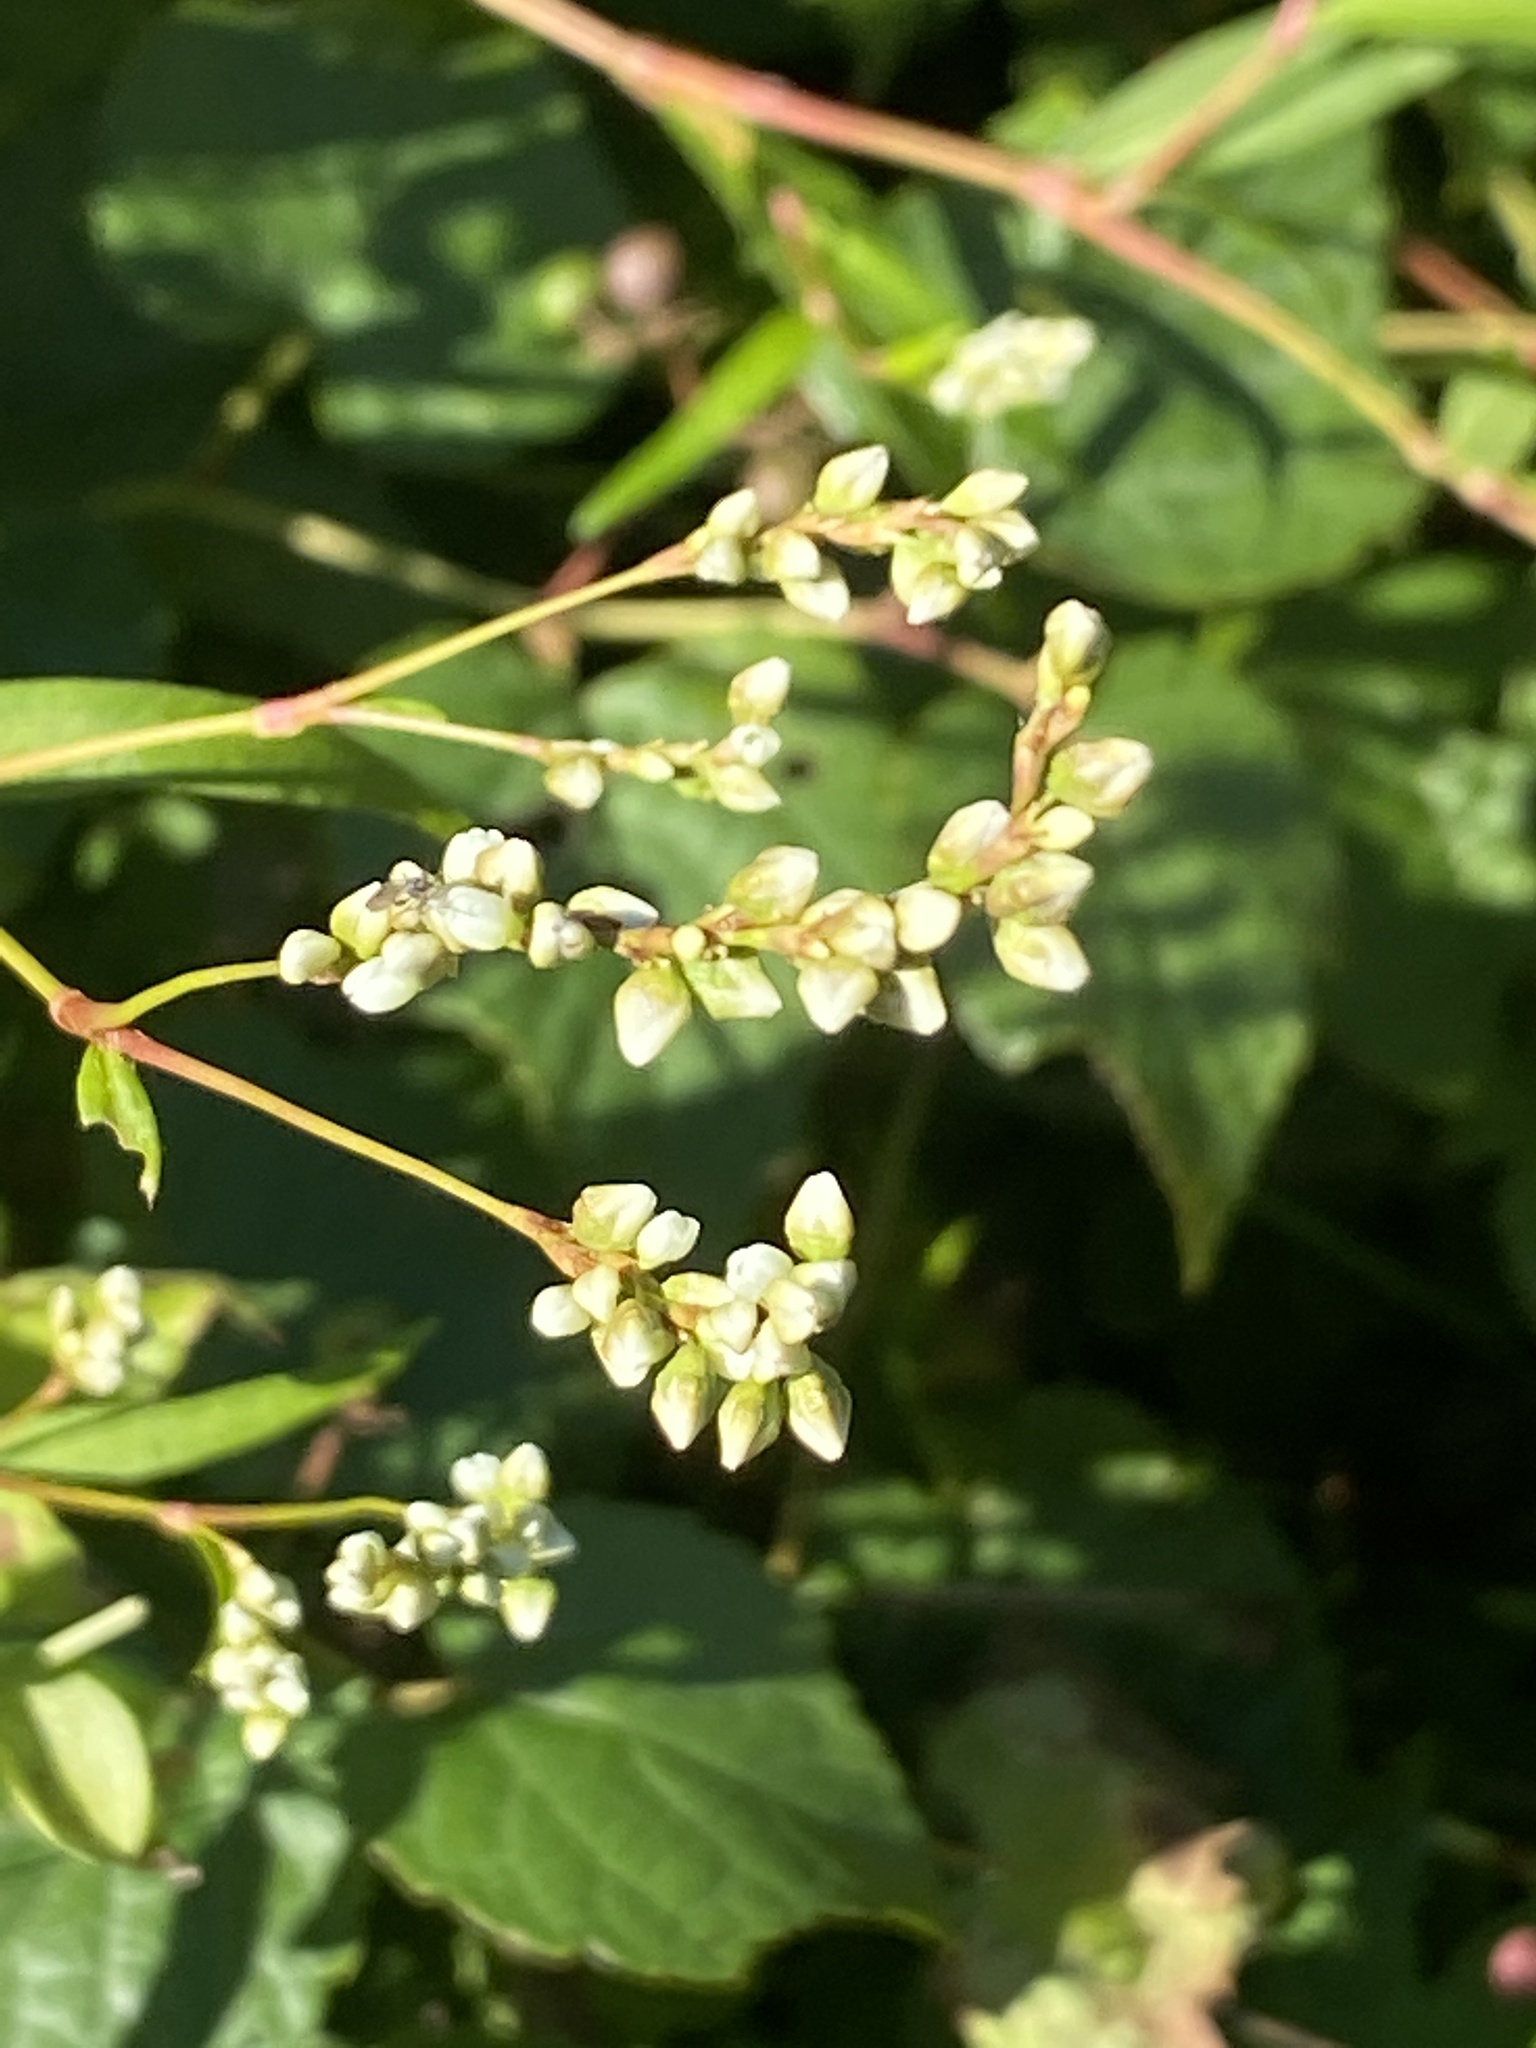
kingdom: Plantae
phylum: Tracheophyta
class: Magnoliopsida
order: Caryophyllales
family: Polygonaceae
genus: Persicaria
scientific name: Persicaria punctata
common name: Dotted smartweed
